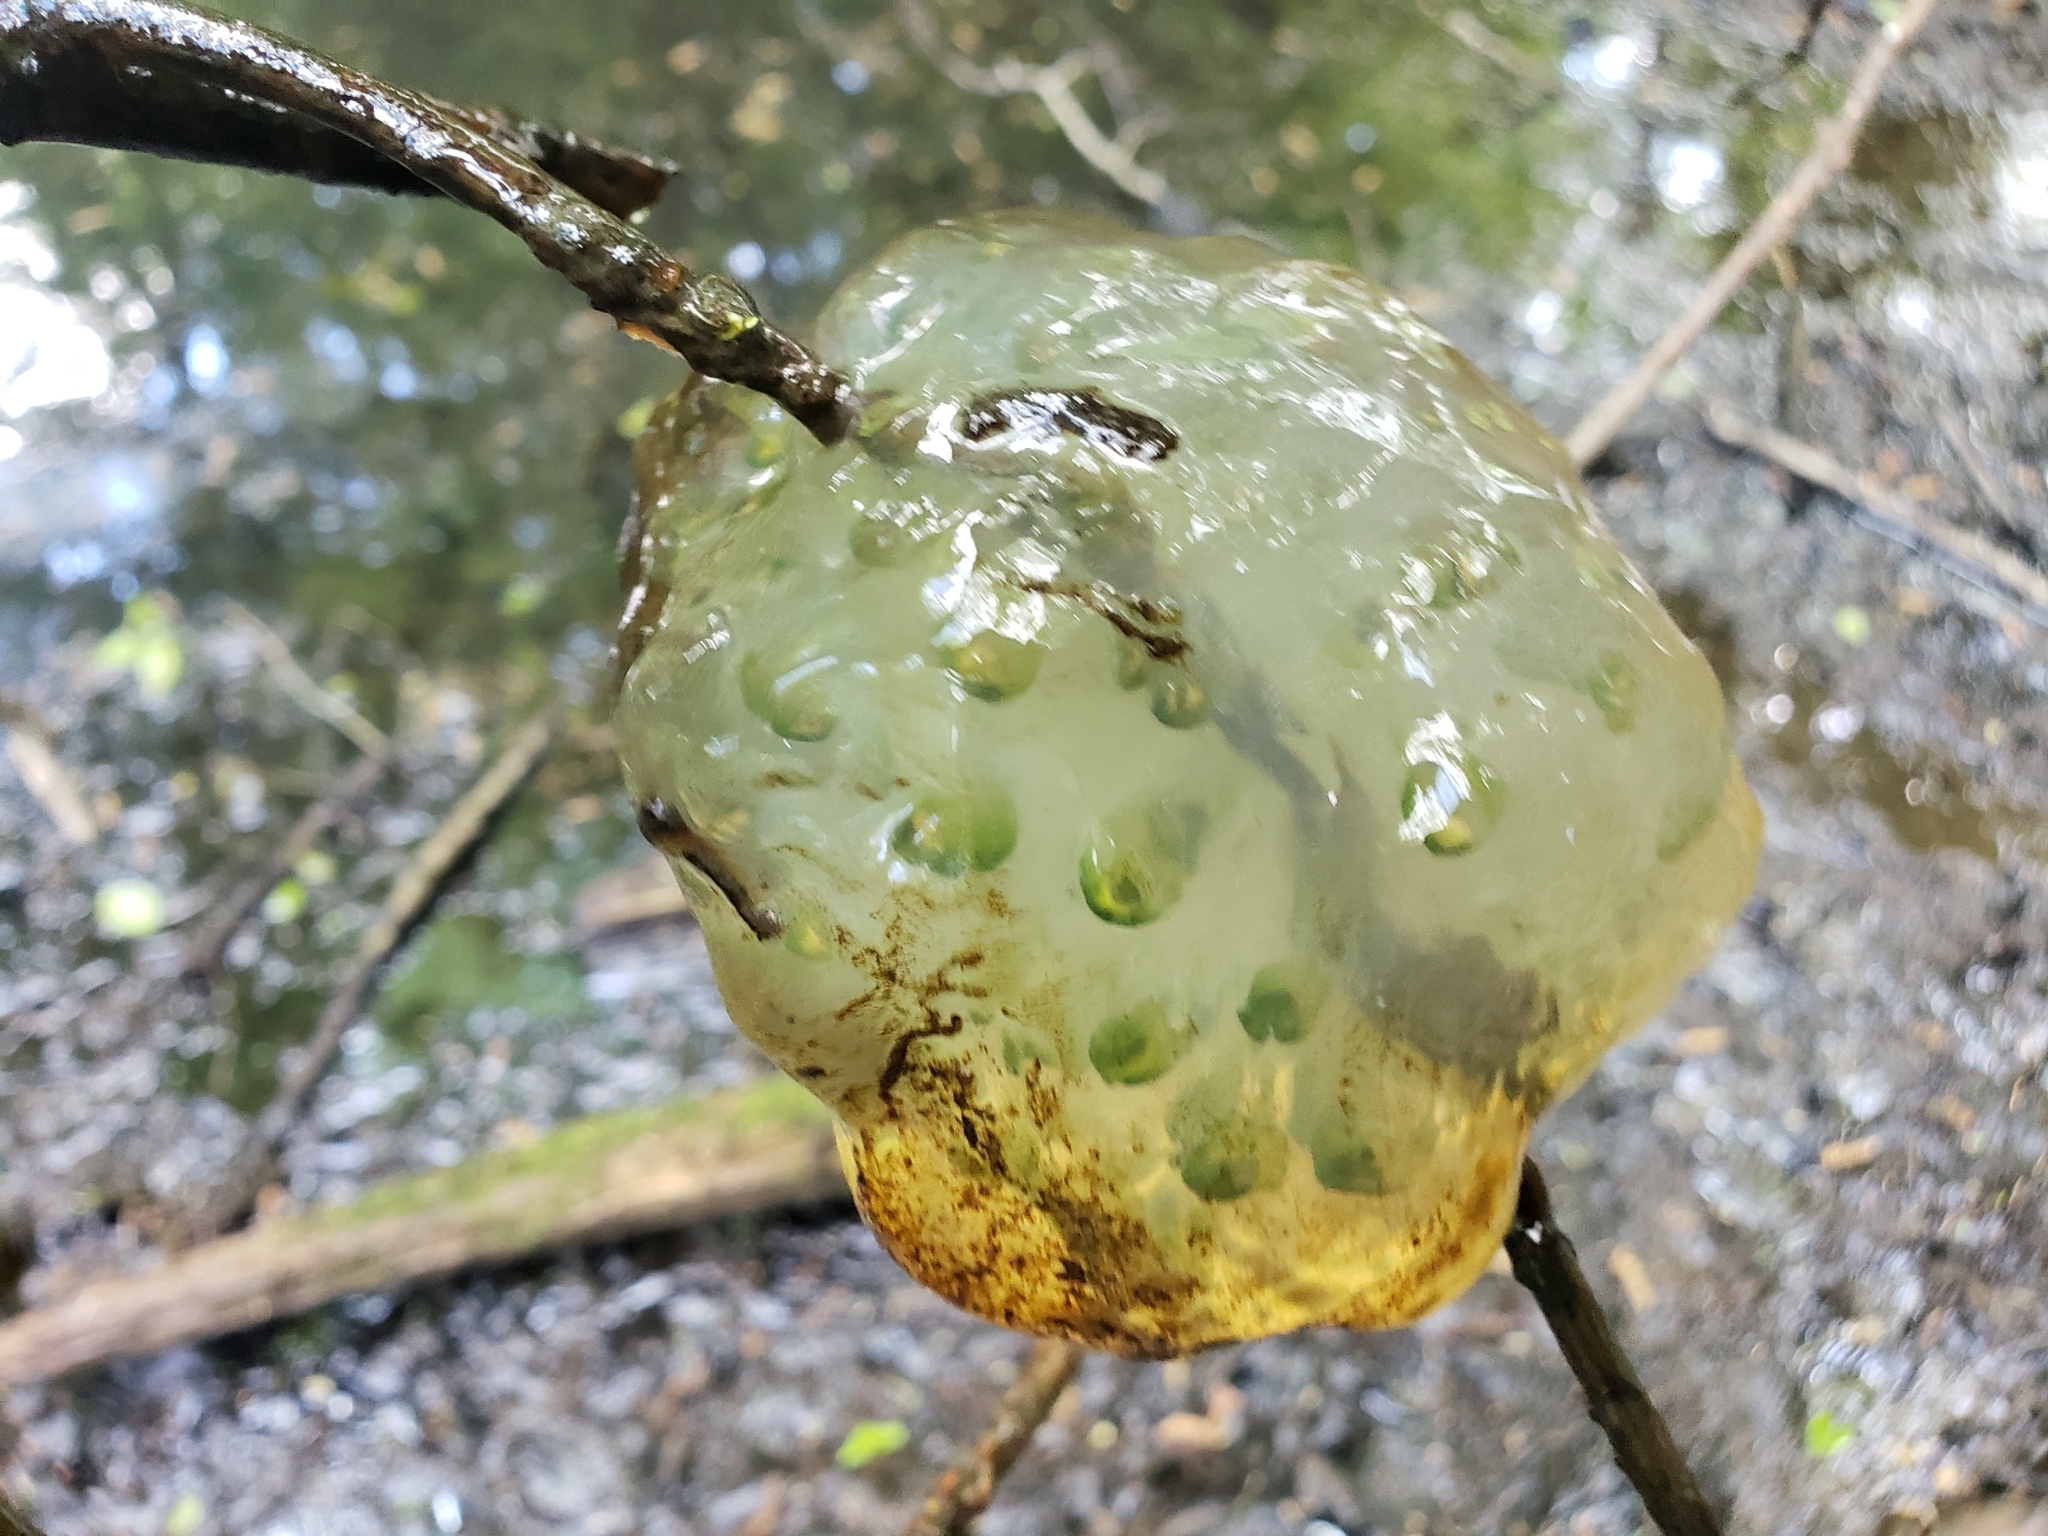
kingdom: Animalia
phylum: Chordata
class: Amphibia
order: Caudata
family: Ambystomatidae
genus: Ambystoma
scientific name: Ambystoma gracile
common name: Northwestern salamander
